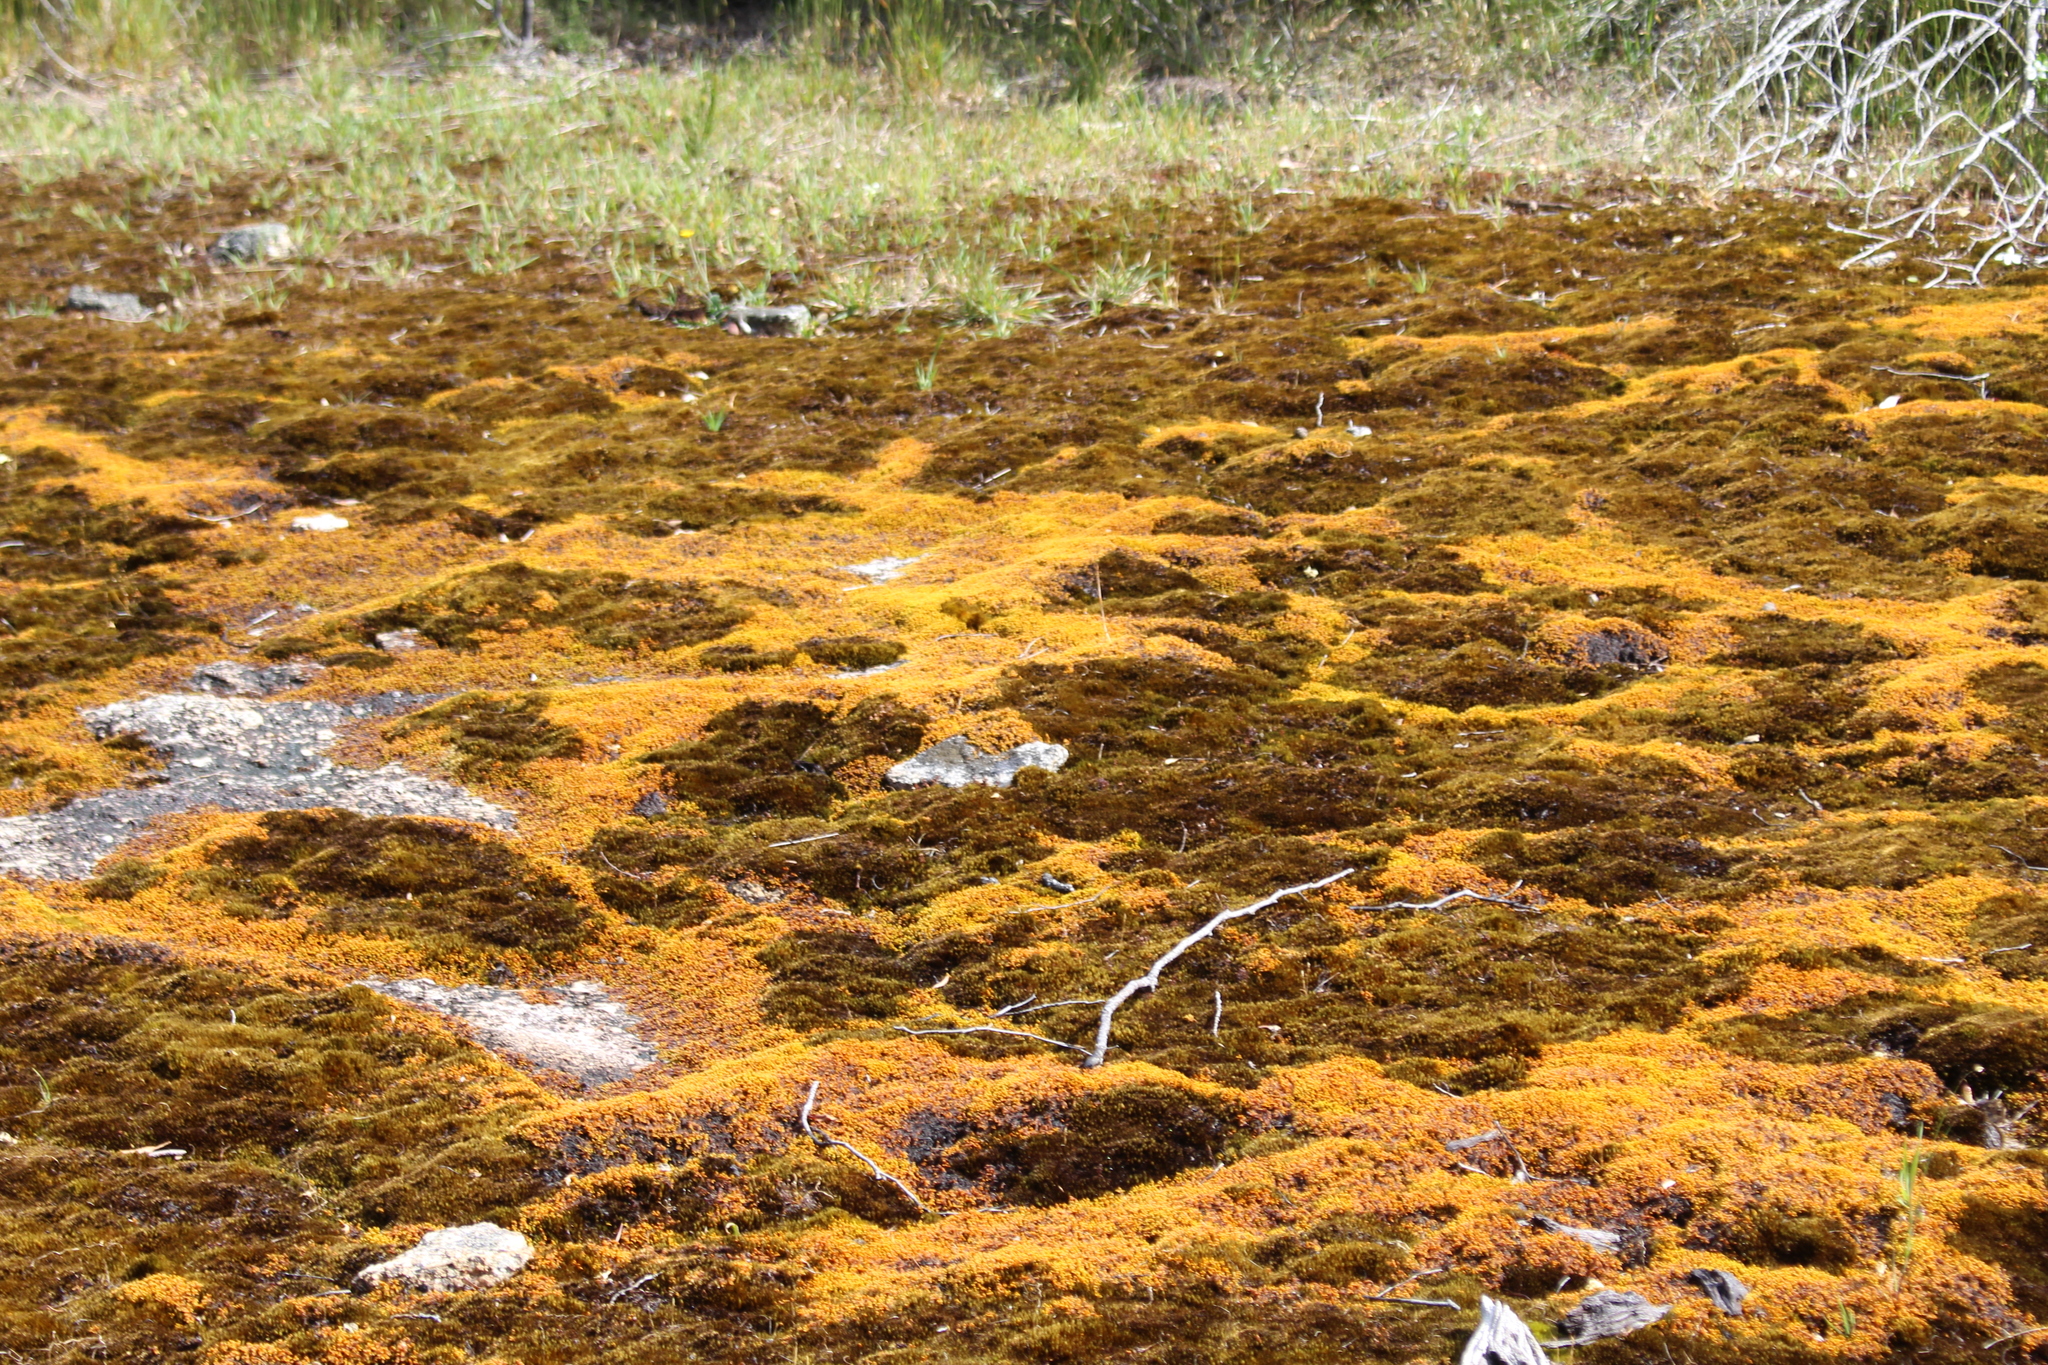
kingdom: Plantae
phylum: Bryophyta
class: Bryopsida
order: Hedwigiales
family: Hedwigiaceae
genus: Rhacocarpus
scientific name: Rhacocarpus purpurascens
